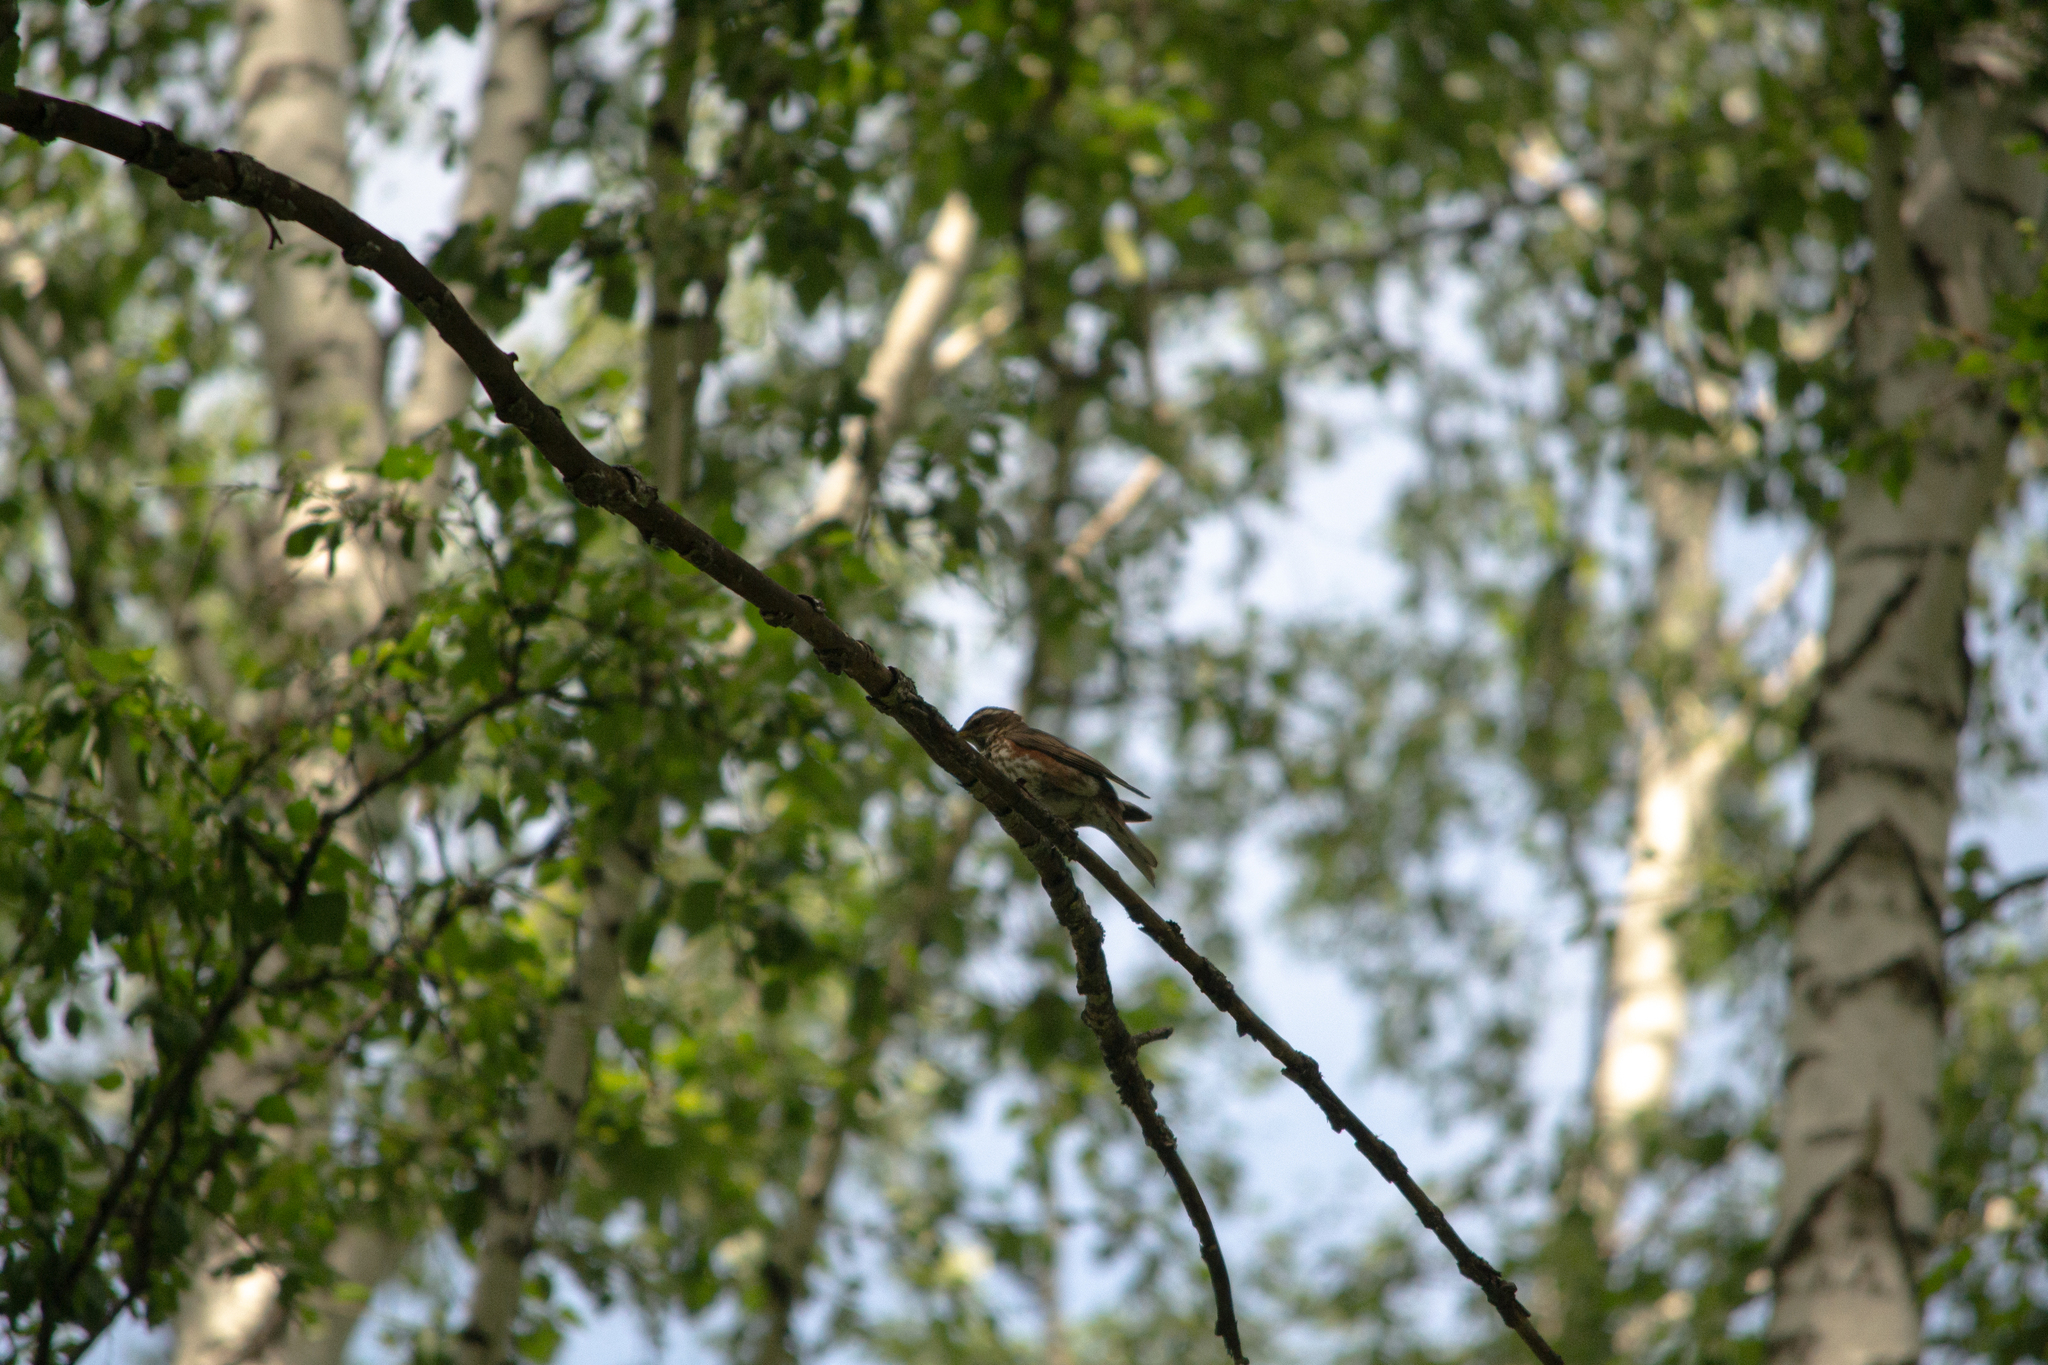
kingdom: Animalia
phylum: Chordata
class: Aves
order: Passeriformes
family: Turdidae
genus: Turdus
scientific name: Turdus iliacus
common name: Redwing
